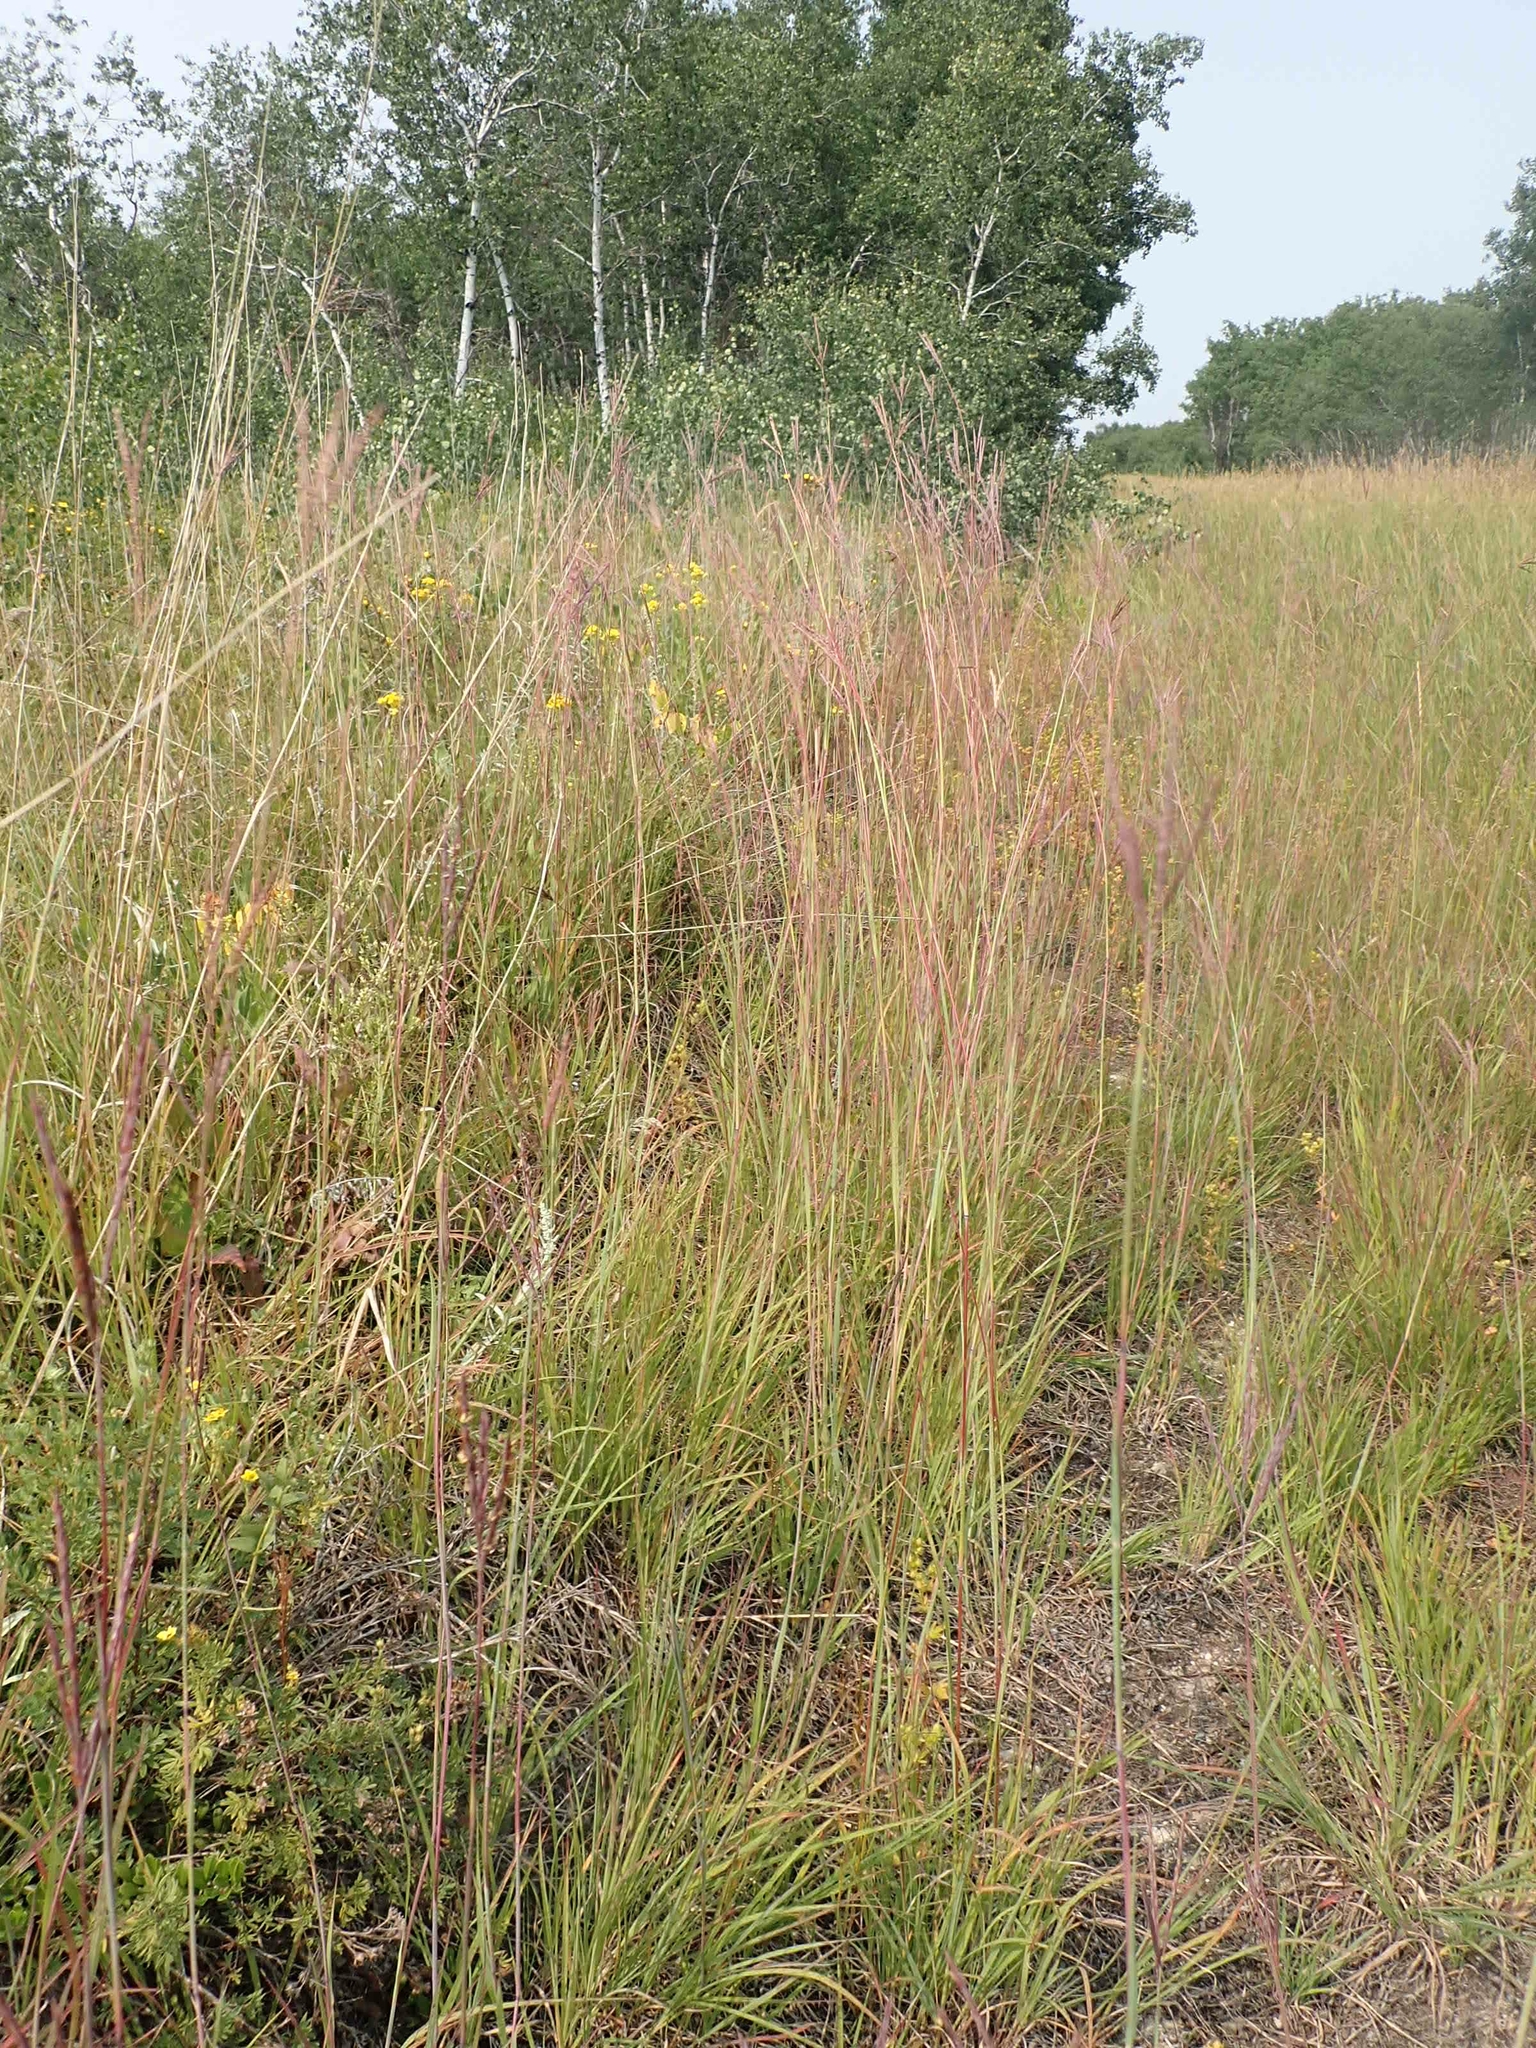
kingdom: Plantae
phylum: Tracheophyta
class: Liliopsida
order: Poales
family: Poaceae
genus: Andropogon
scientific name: Andropogon gerardi
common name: Big bluestem
